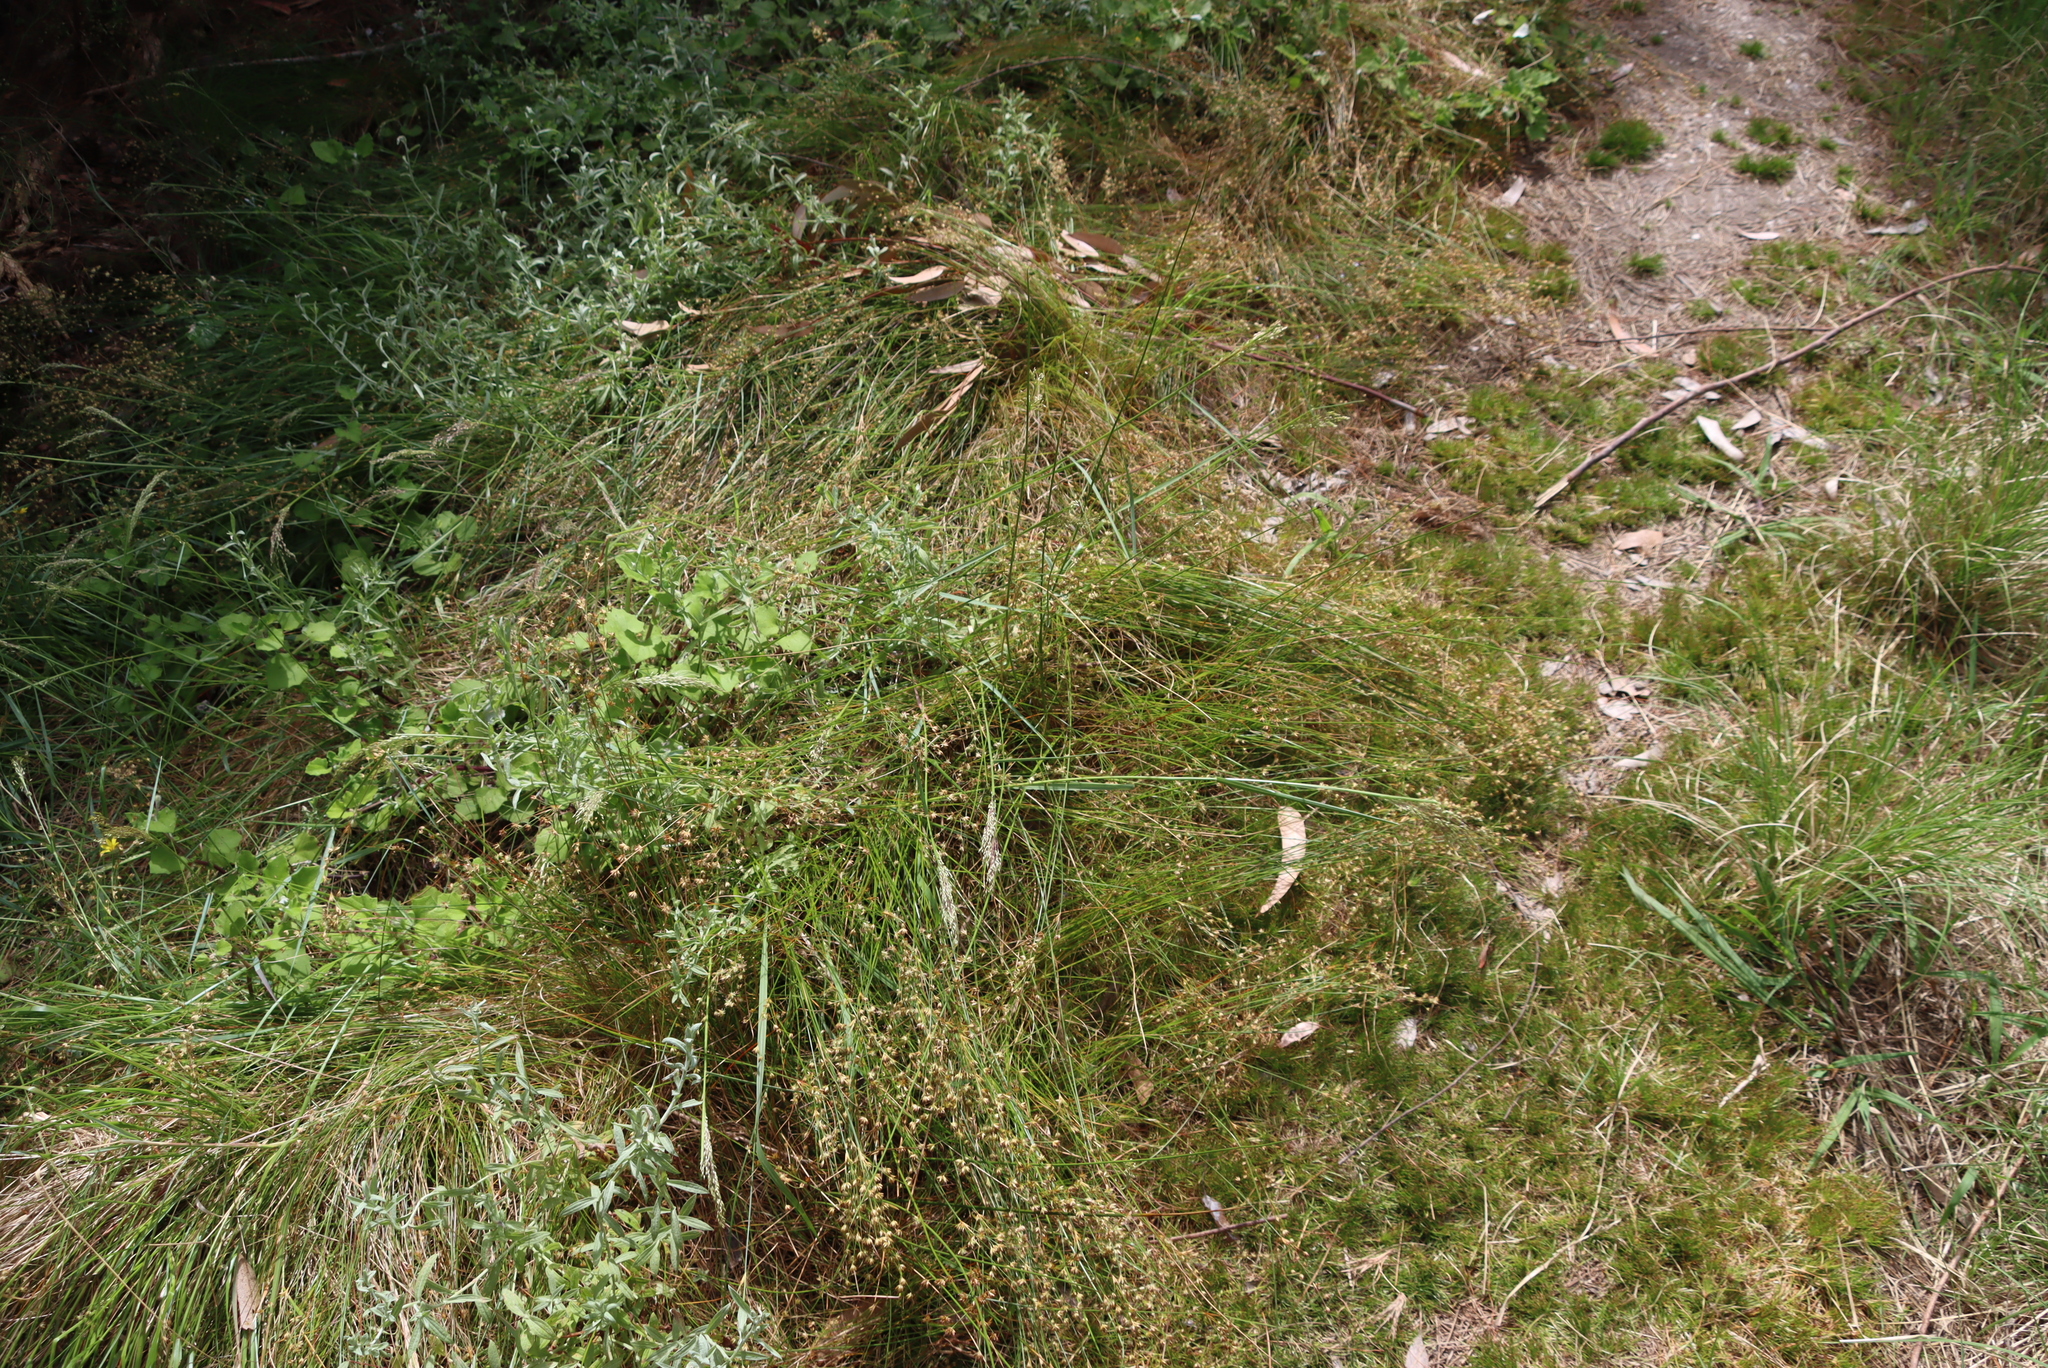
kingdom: Plantae
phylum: Tracheophyta
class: Liliopsida
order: Poales
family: Juncaceae
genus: Juncus
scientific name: Juncus capensis
